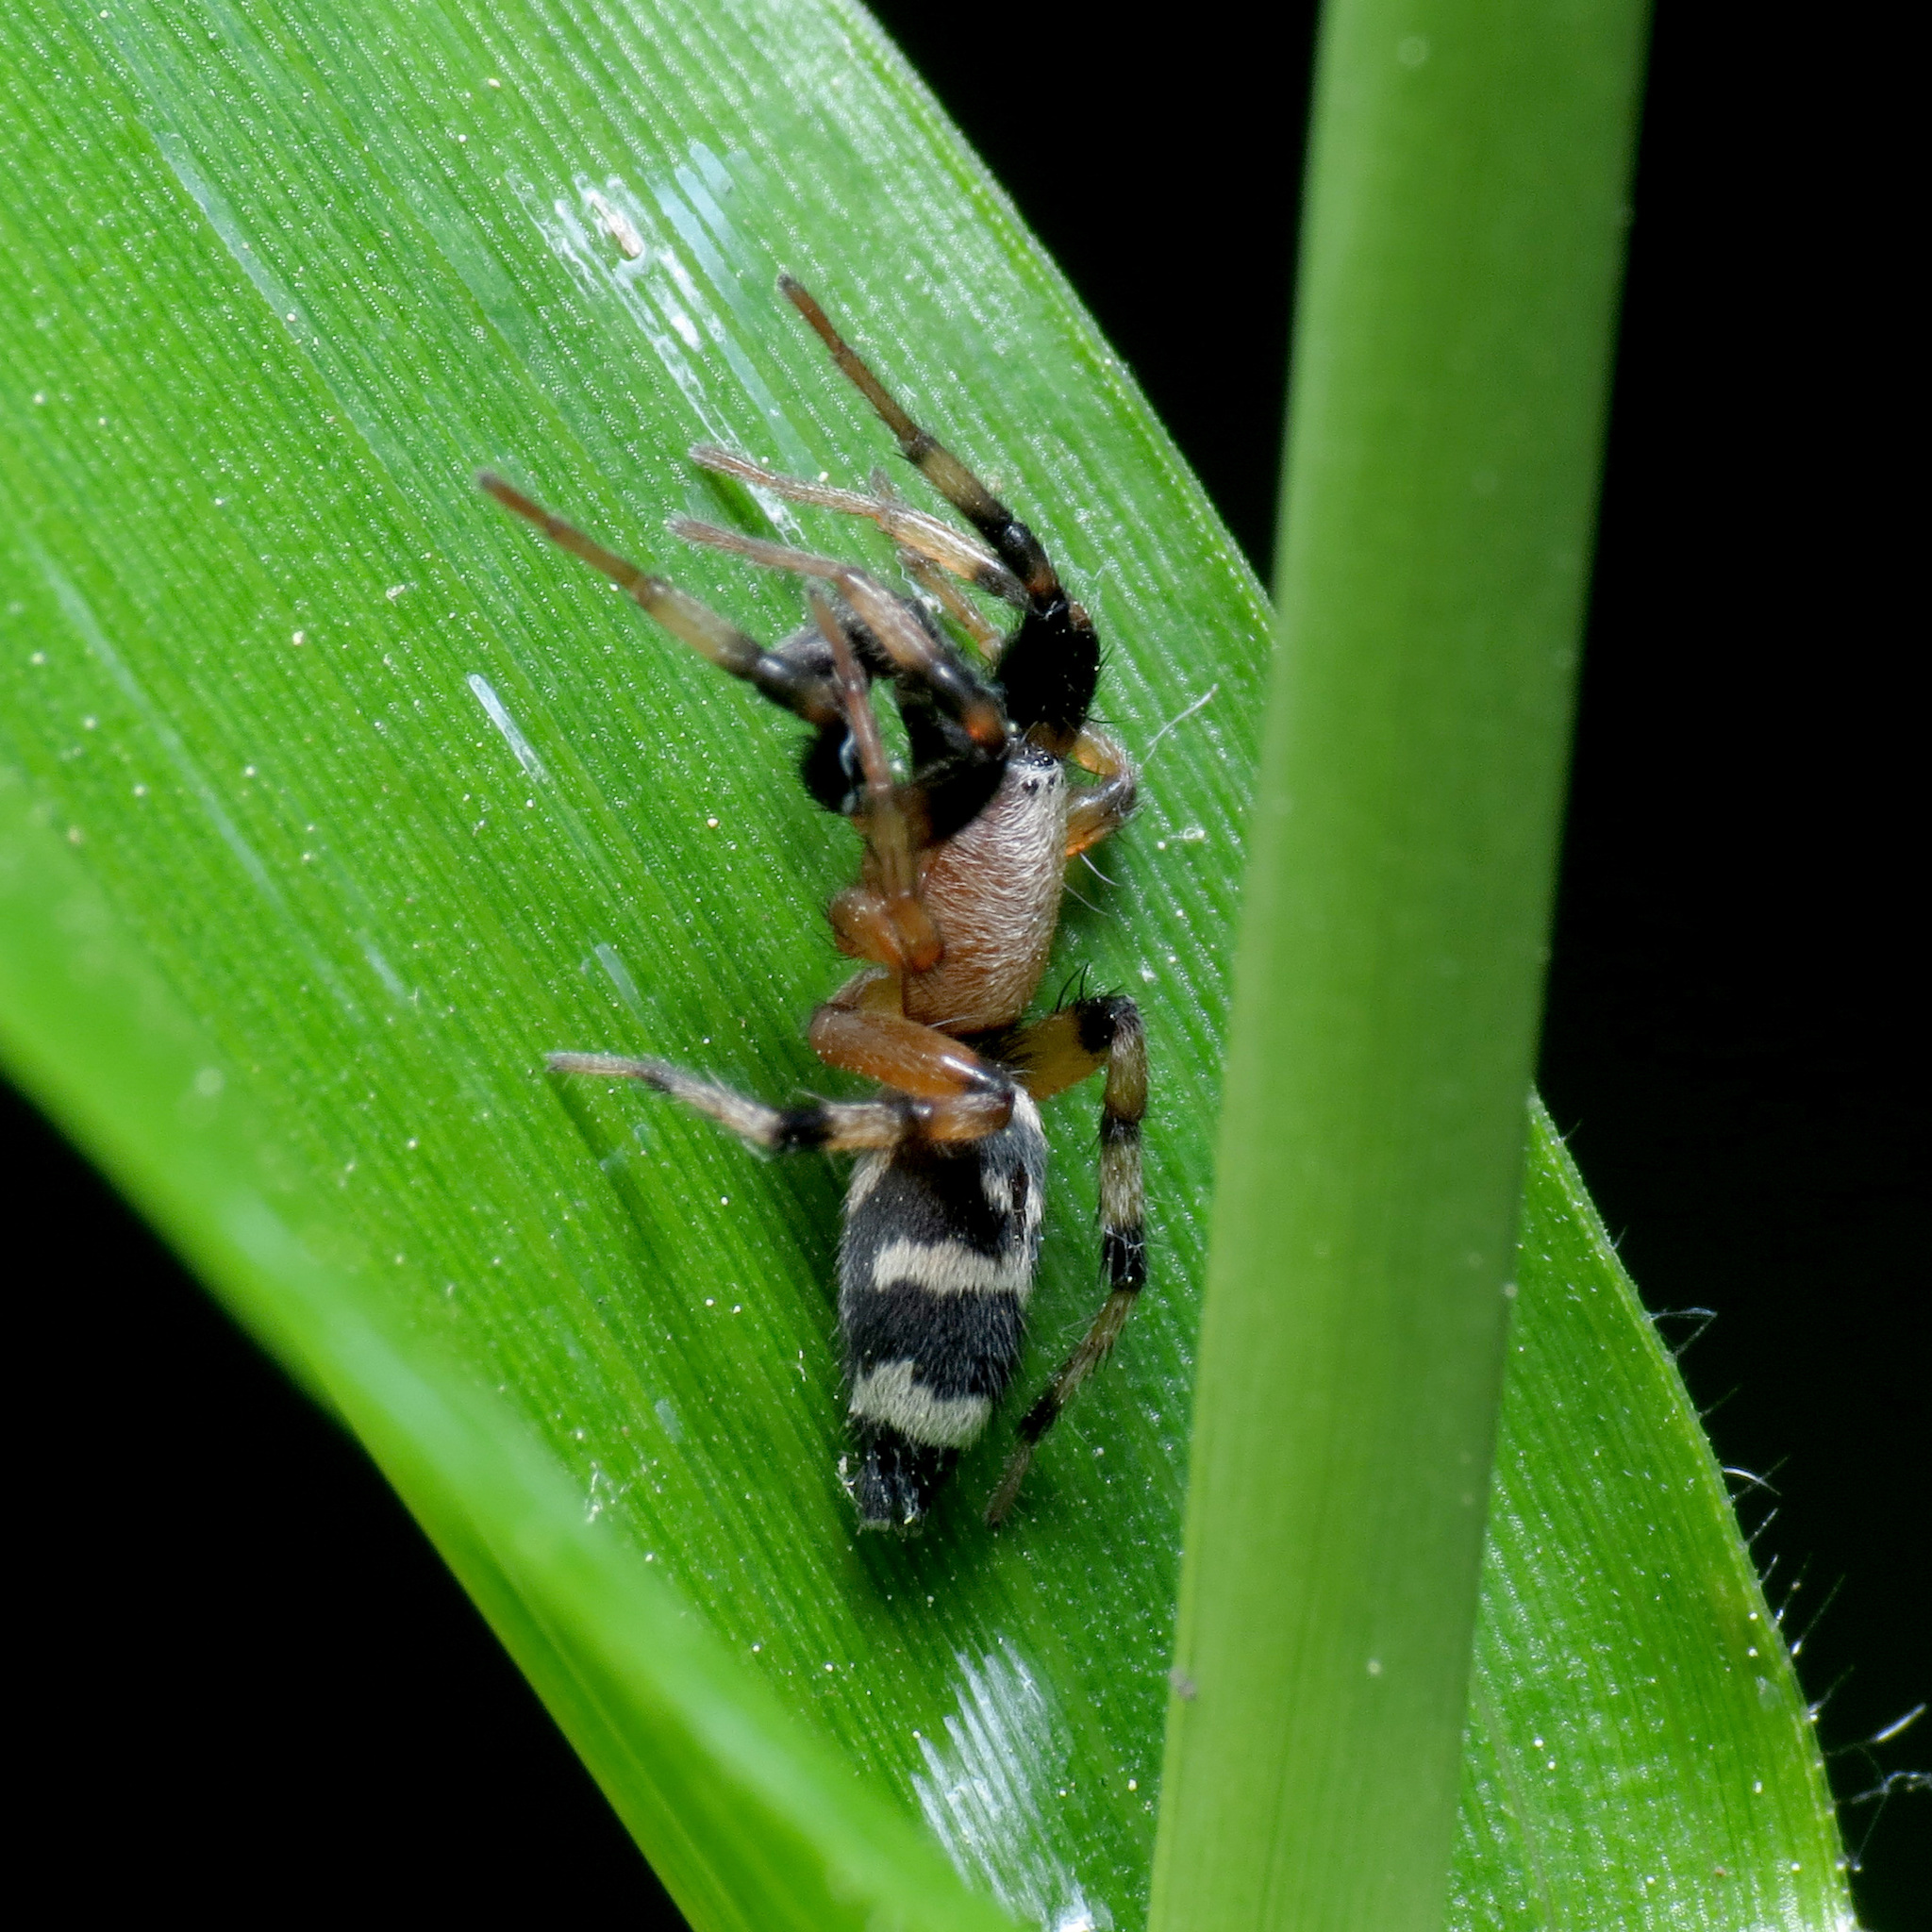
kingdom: Animalia
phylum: Arthropoda
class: Arachnida
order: Araneae
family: Gnaphosidae
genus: Sergiolus
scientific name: Sergiolus capulatus
